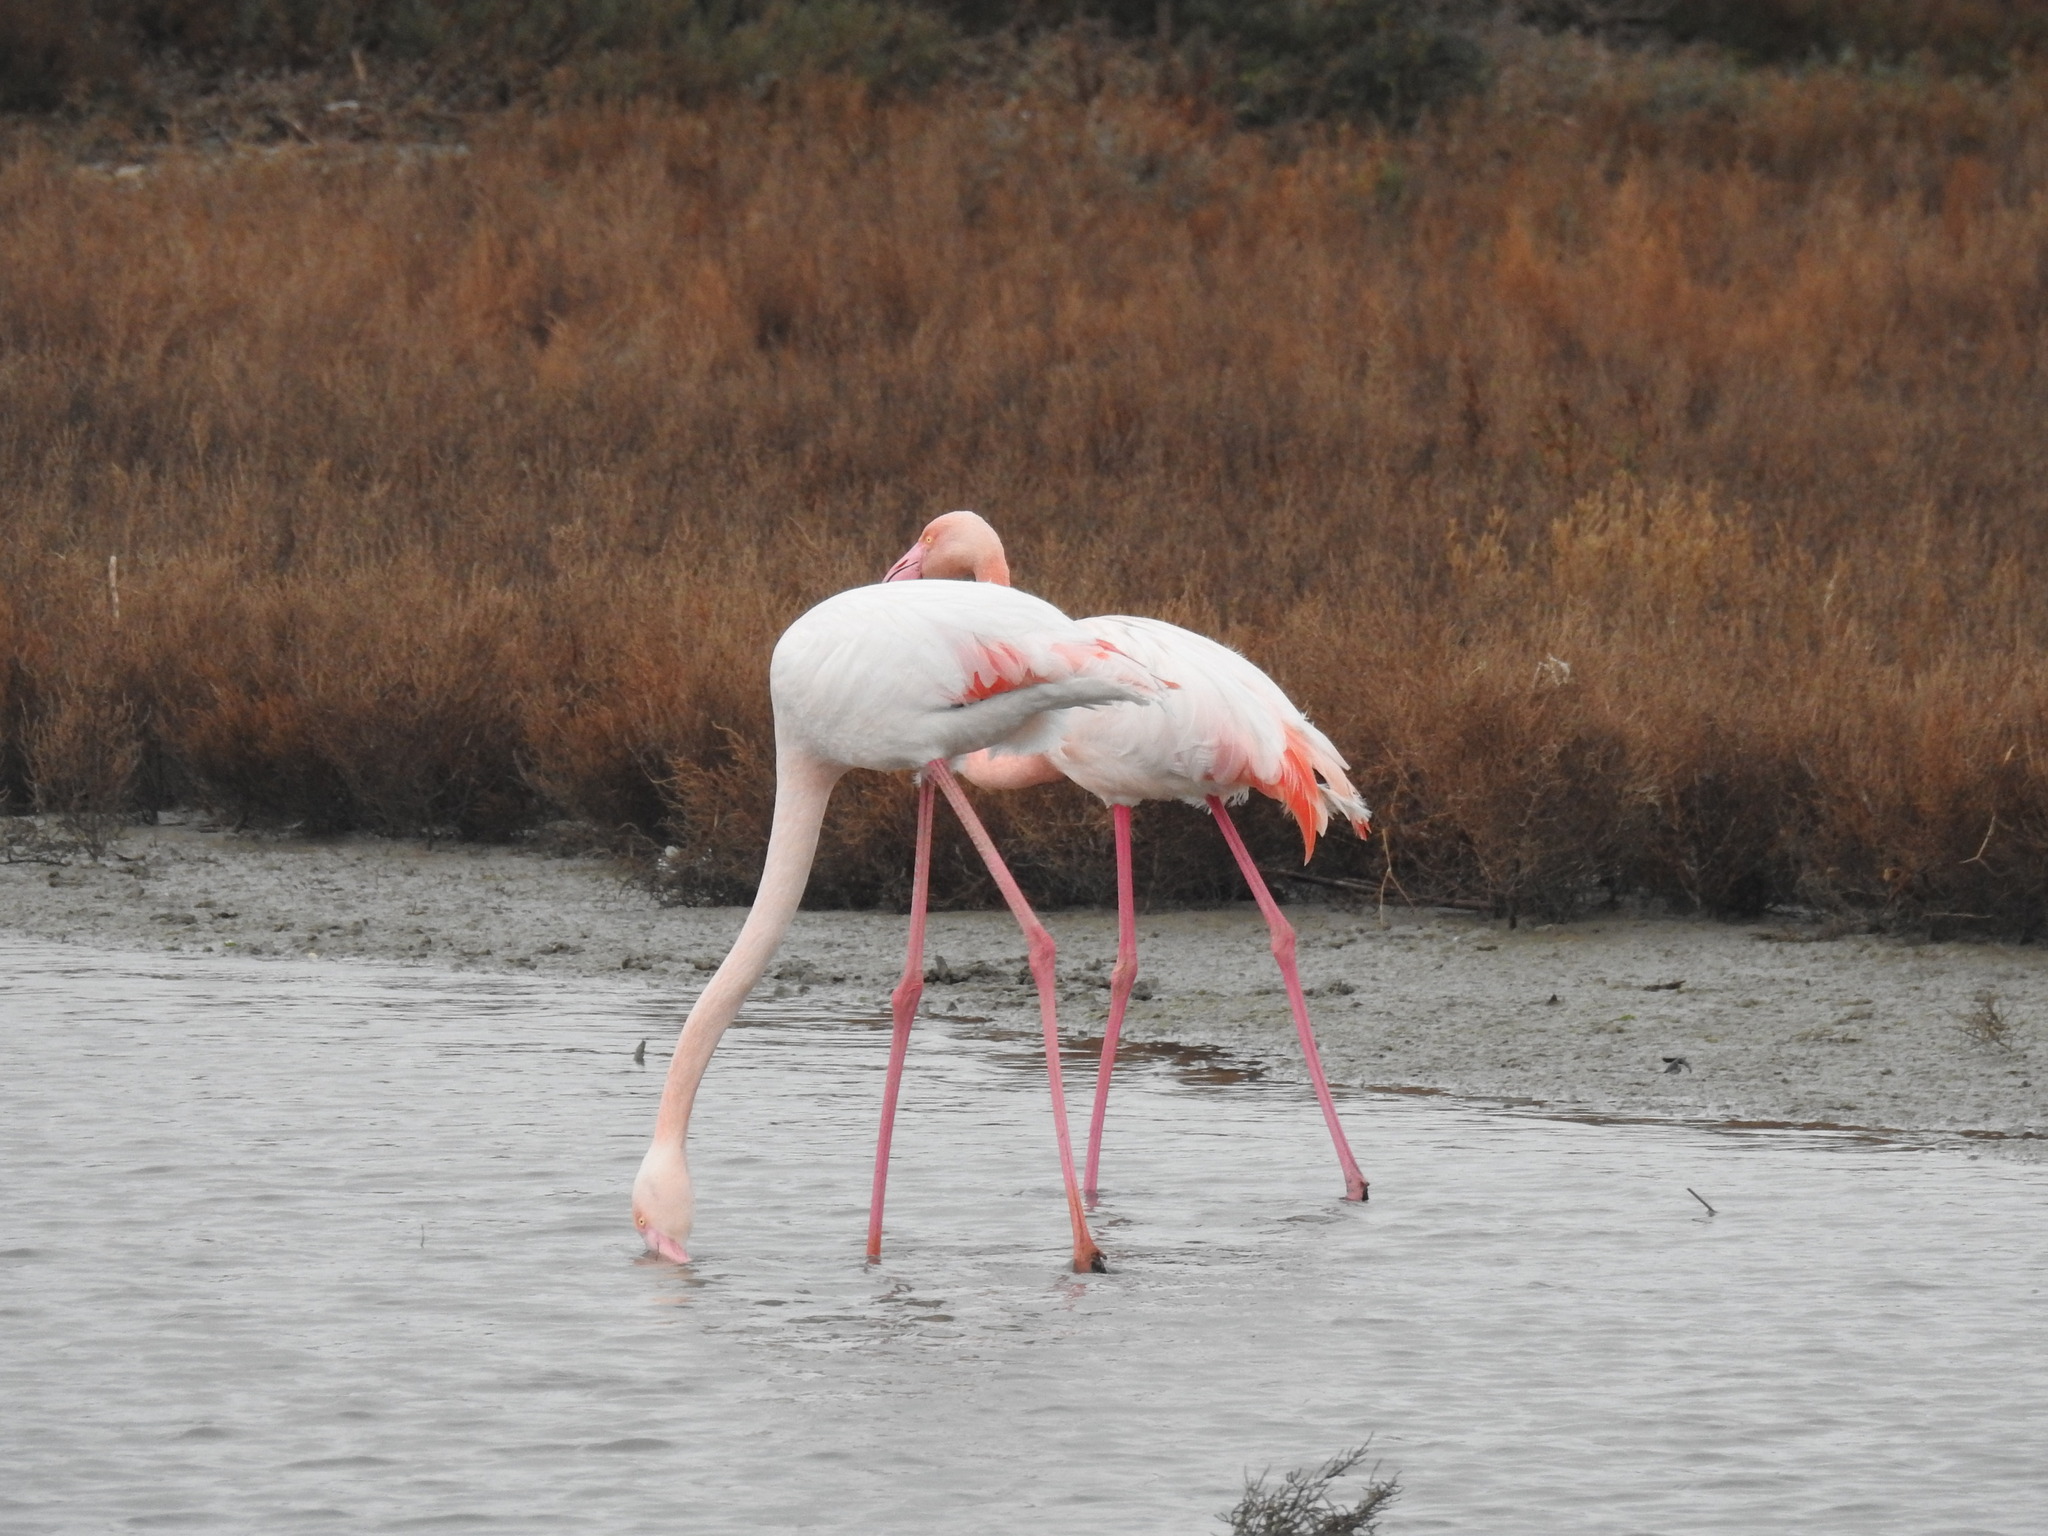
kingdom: Animalia
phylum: Chordata
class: Aves
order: Phoenicopteriformes
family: Phoenicopteridae
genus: Phoenicopterus
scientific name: Phoenicopterus roseus
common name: Greater flamingo
